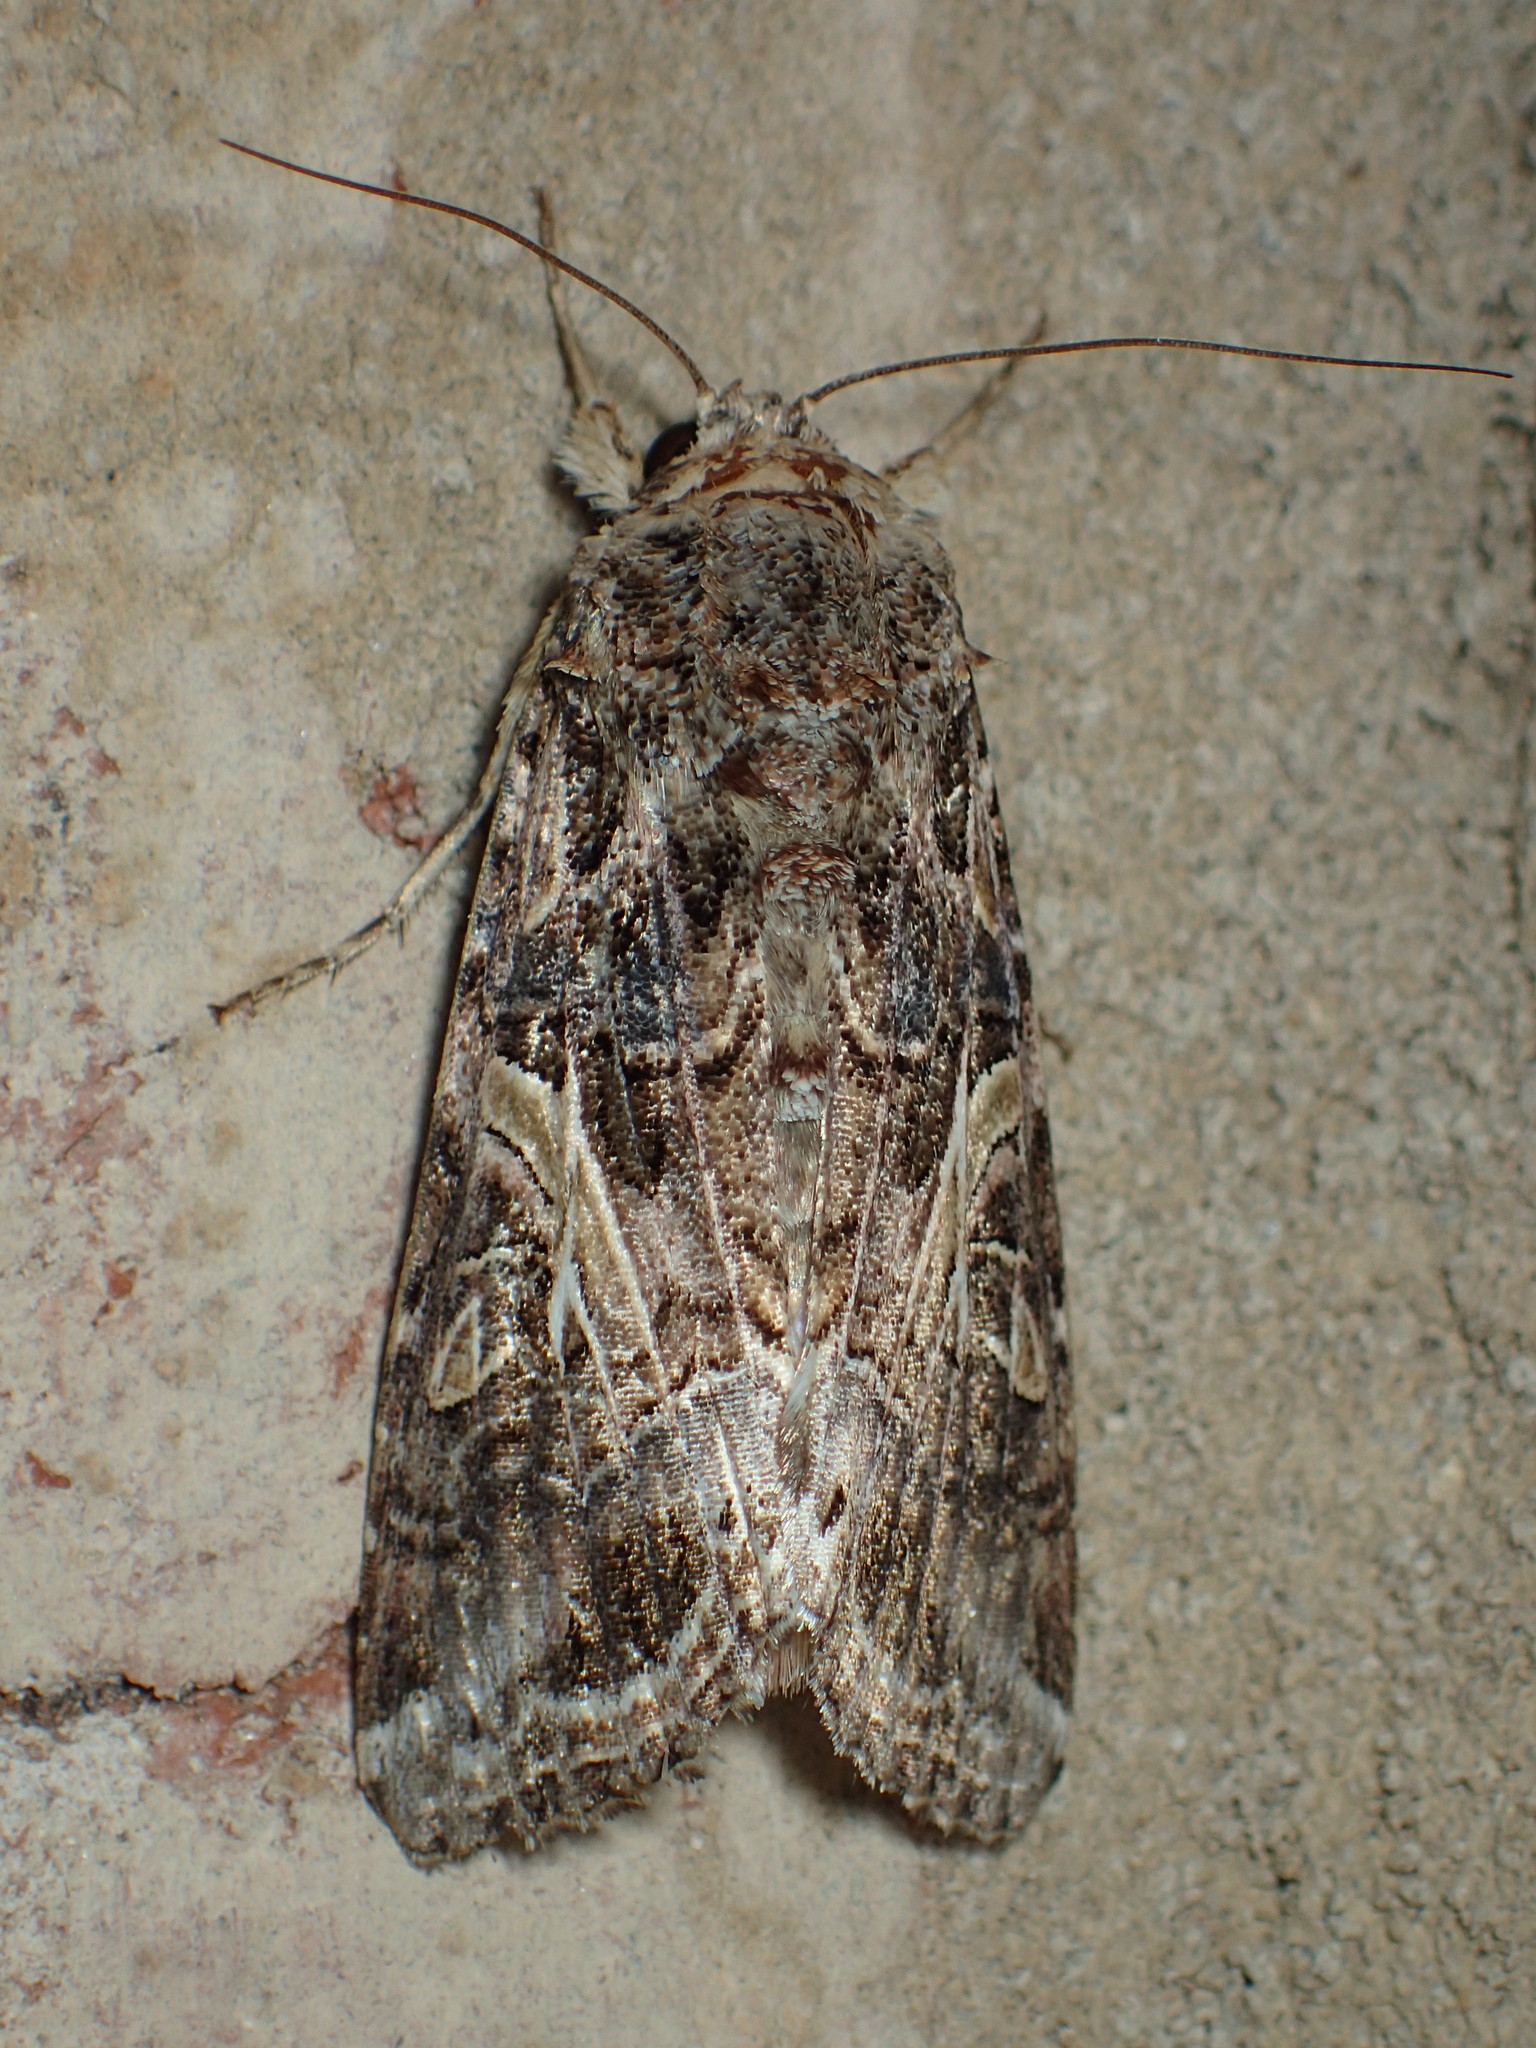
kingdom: Animalia
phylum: Arthropoda
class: Insecta
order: Lepidoptera
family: Noctuidae
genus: Spodoptera
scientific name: Spodoptera ornithogalli
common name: Yellow-striped armyworm
